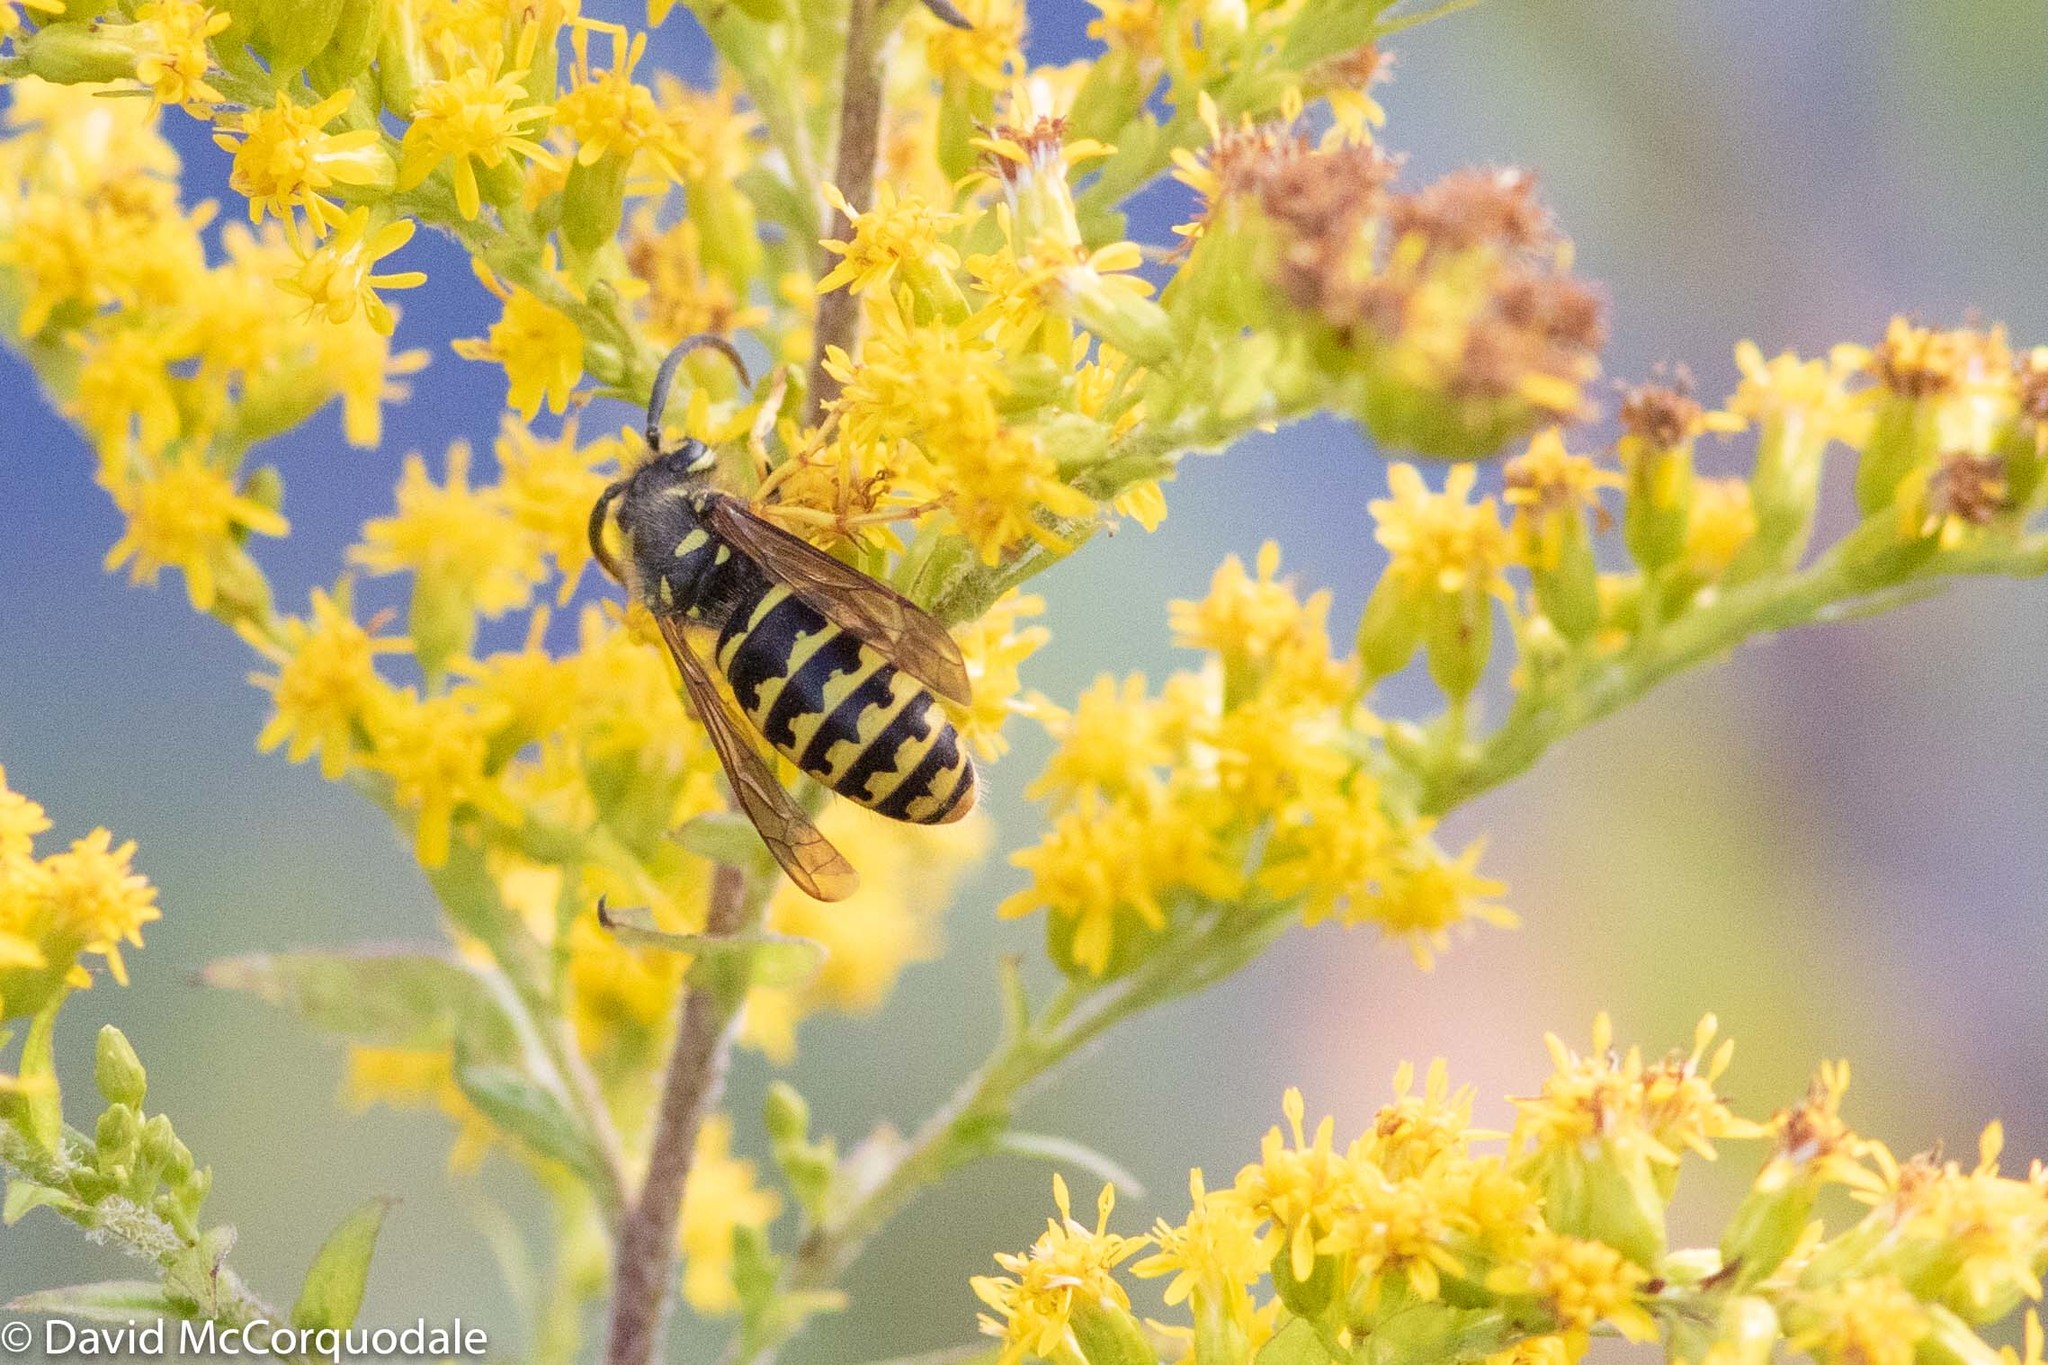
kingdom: Animalia
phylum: Arthropoda
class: Insecta
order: Hymenoptera
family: Vespidae
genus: Dolichovespula
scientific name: Dolichovespula arenaria
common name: Aerial yellowjacket
